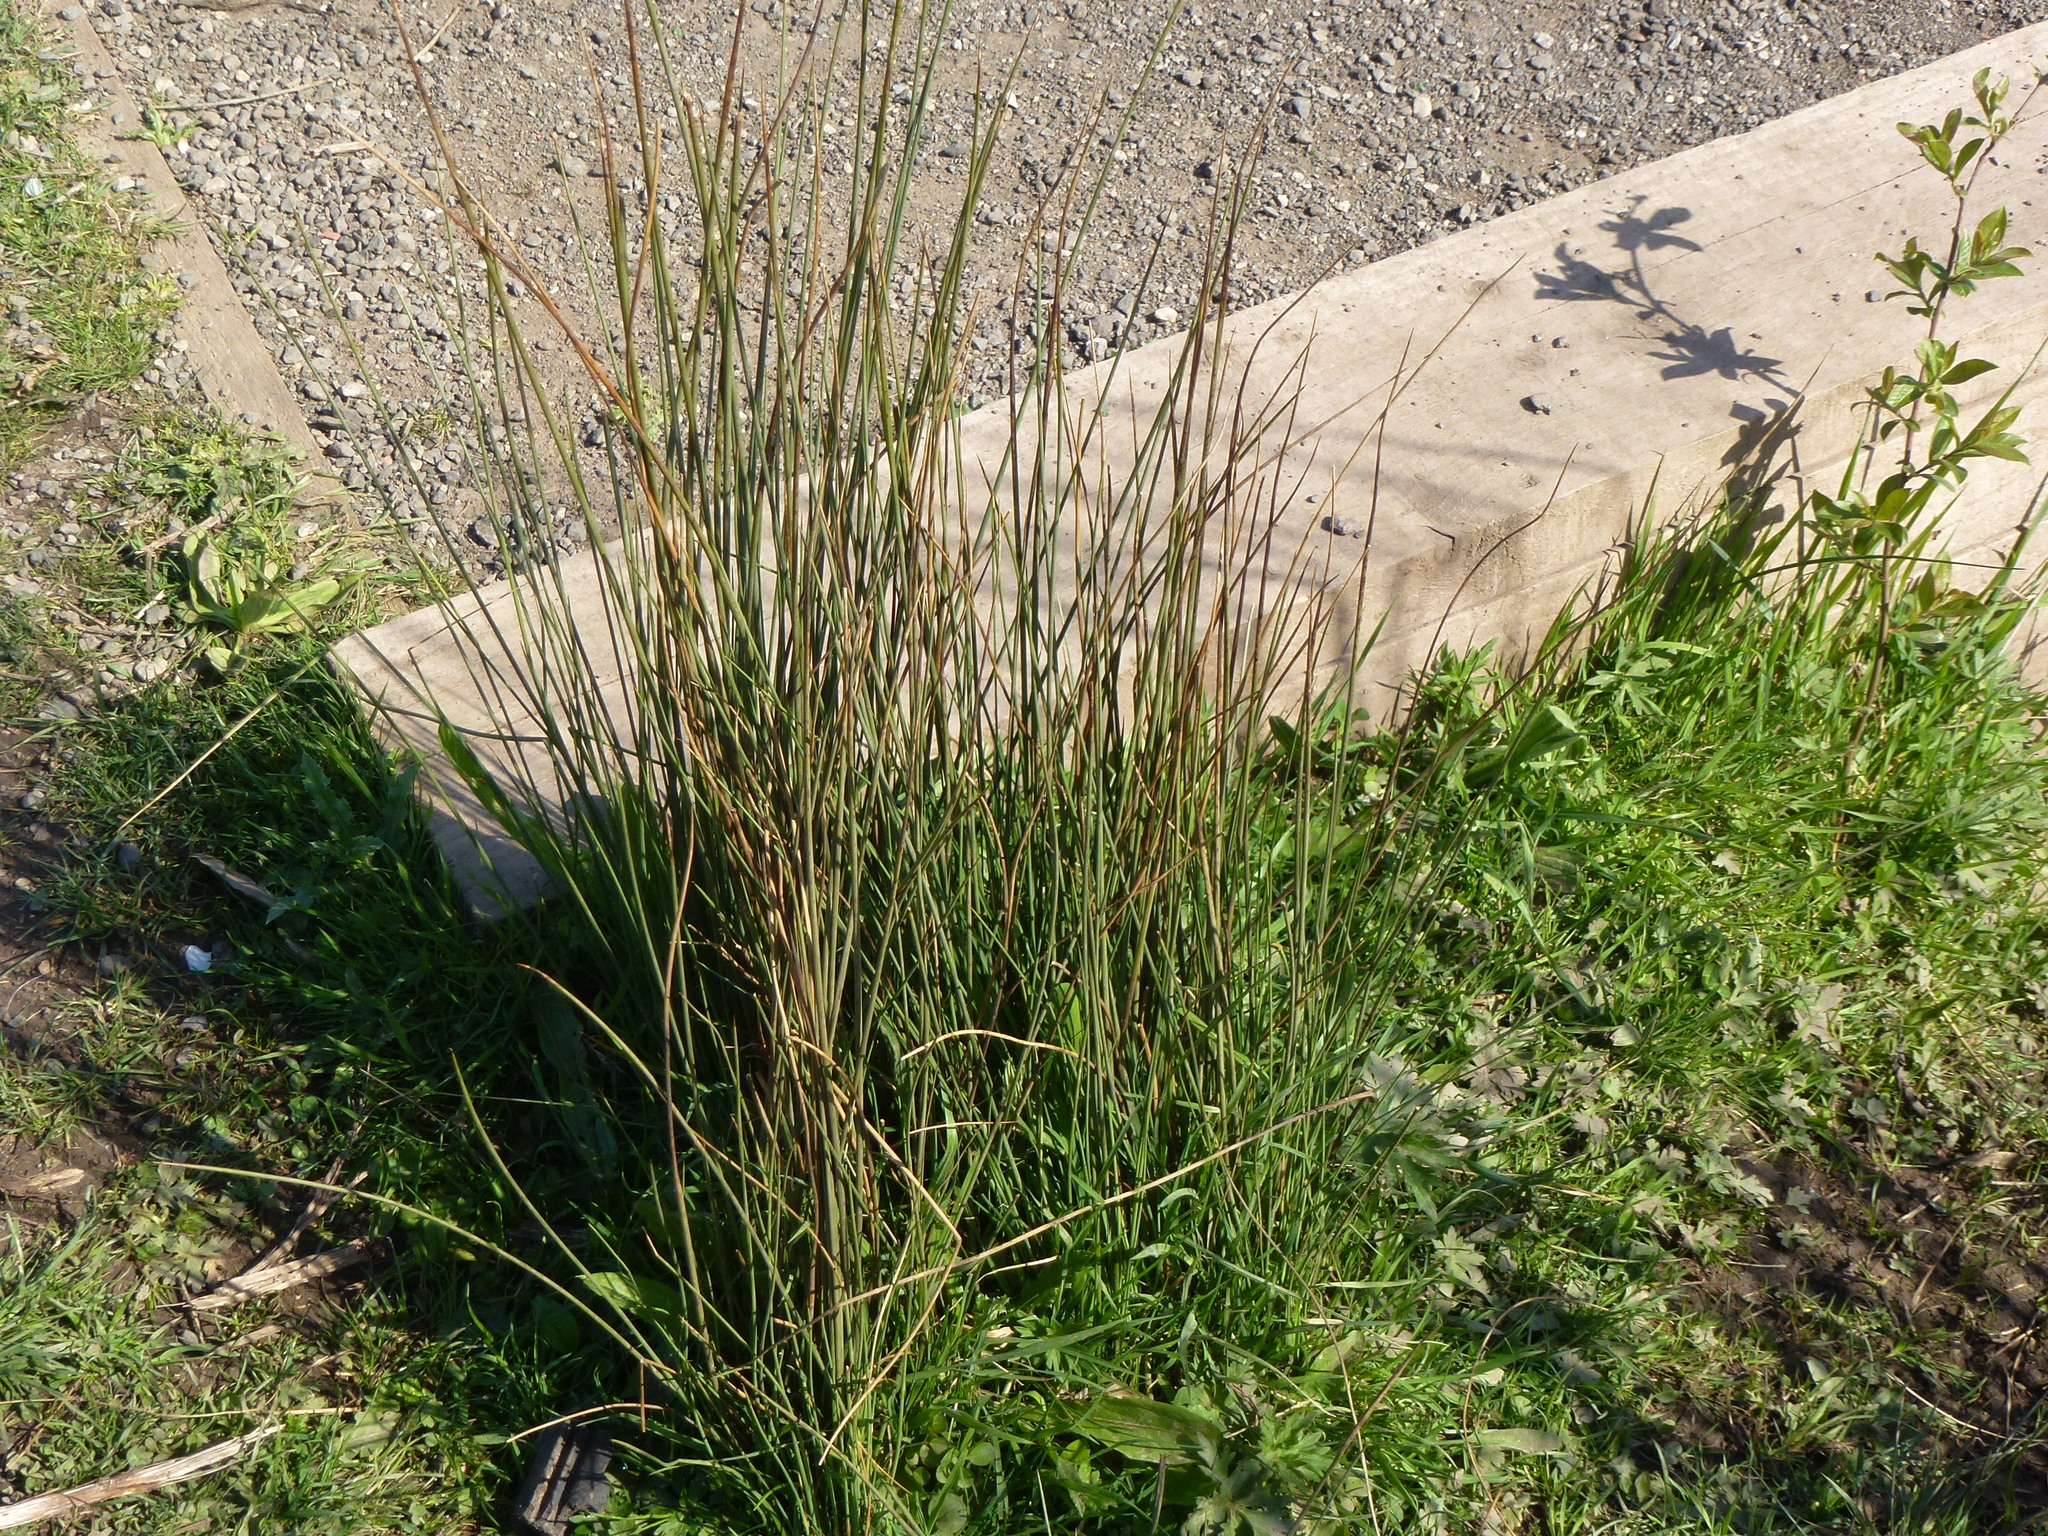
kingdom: Plantae
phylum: Tracheophyta
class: Liliopsida
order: Poales
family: Juncaceae
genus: Juncus
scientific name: Juncus effusus
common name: Soft rush
